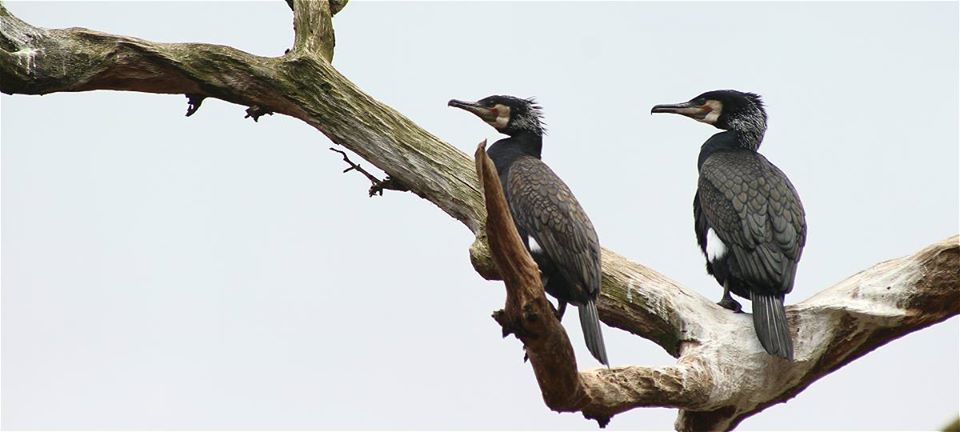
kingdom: Animalia
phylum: Chordata
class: Aves
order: Suliformes
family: Phalacrocoracidae
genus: Phalacrocorax
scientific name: Phalacrocorax carbo
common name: Great cormorant
